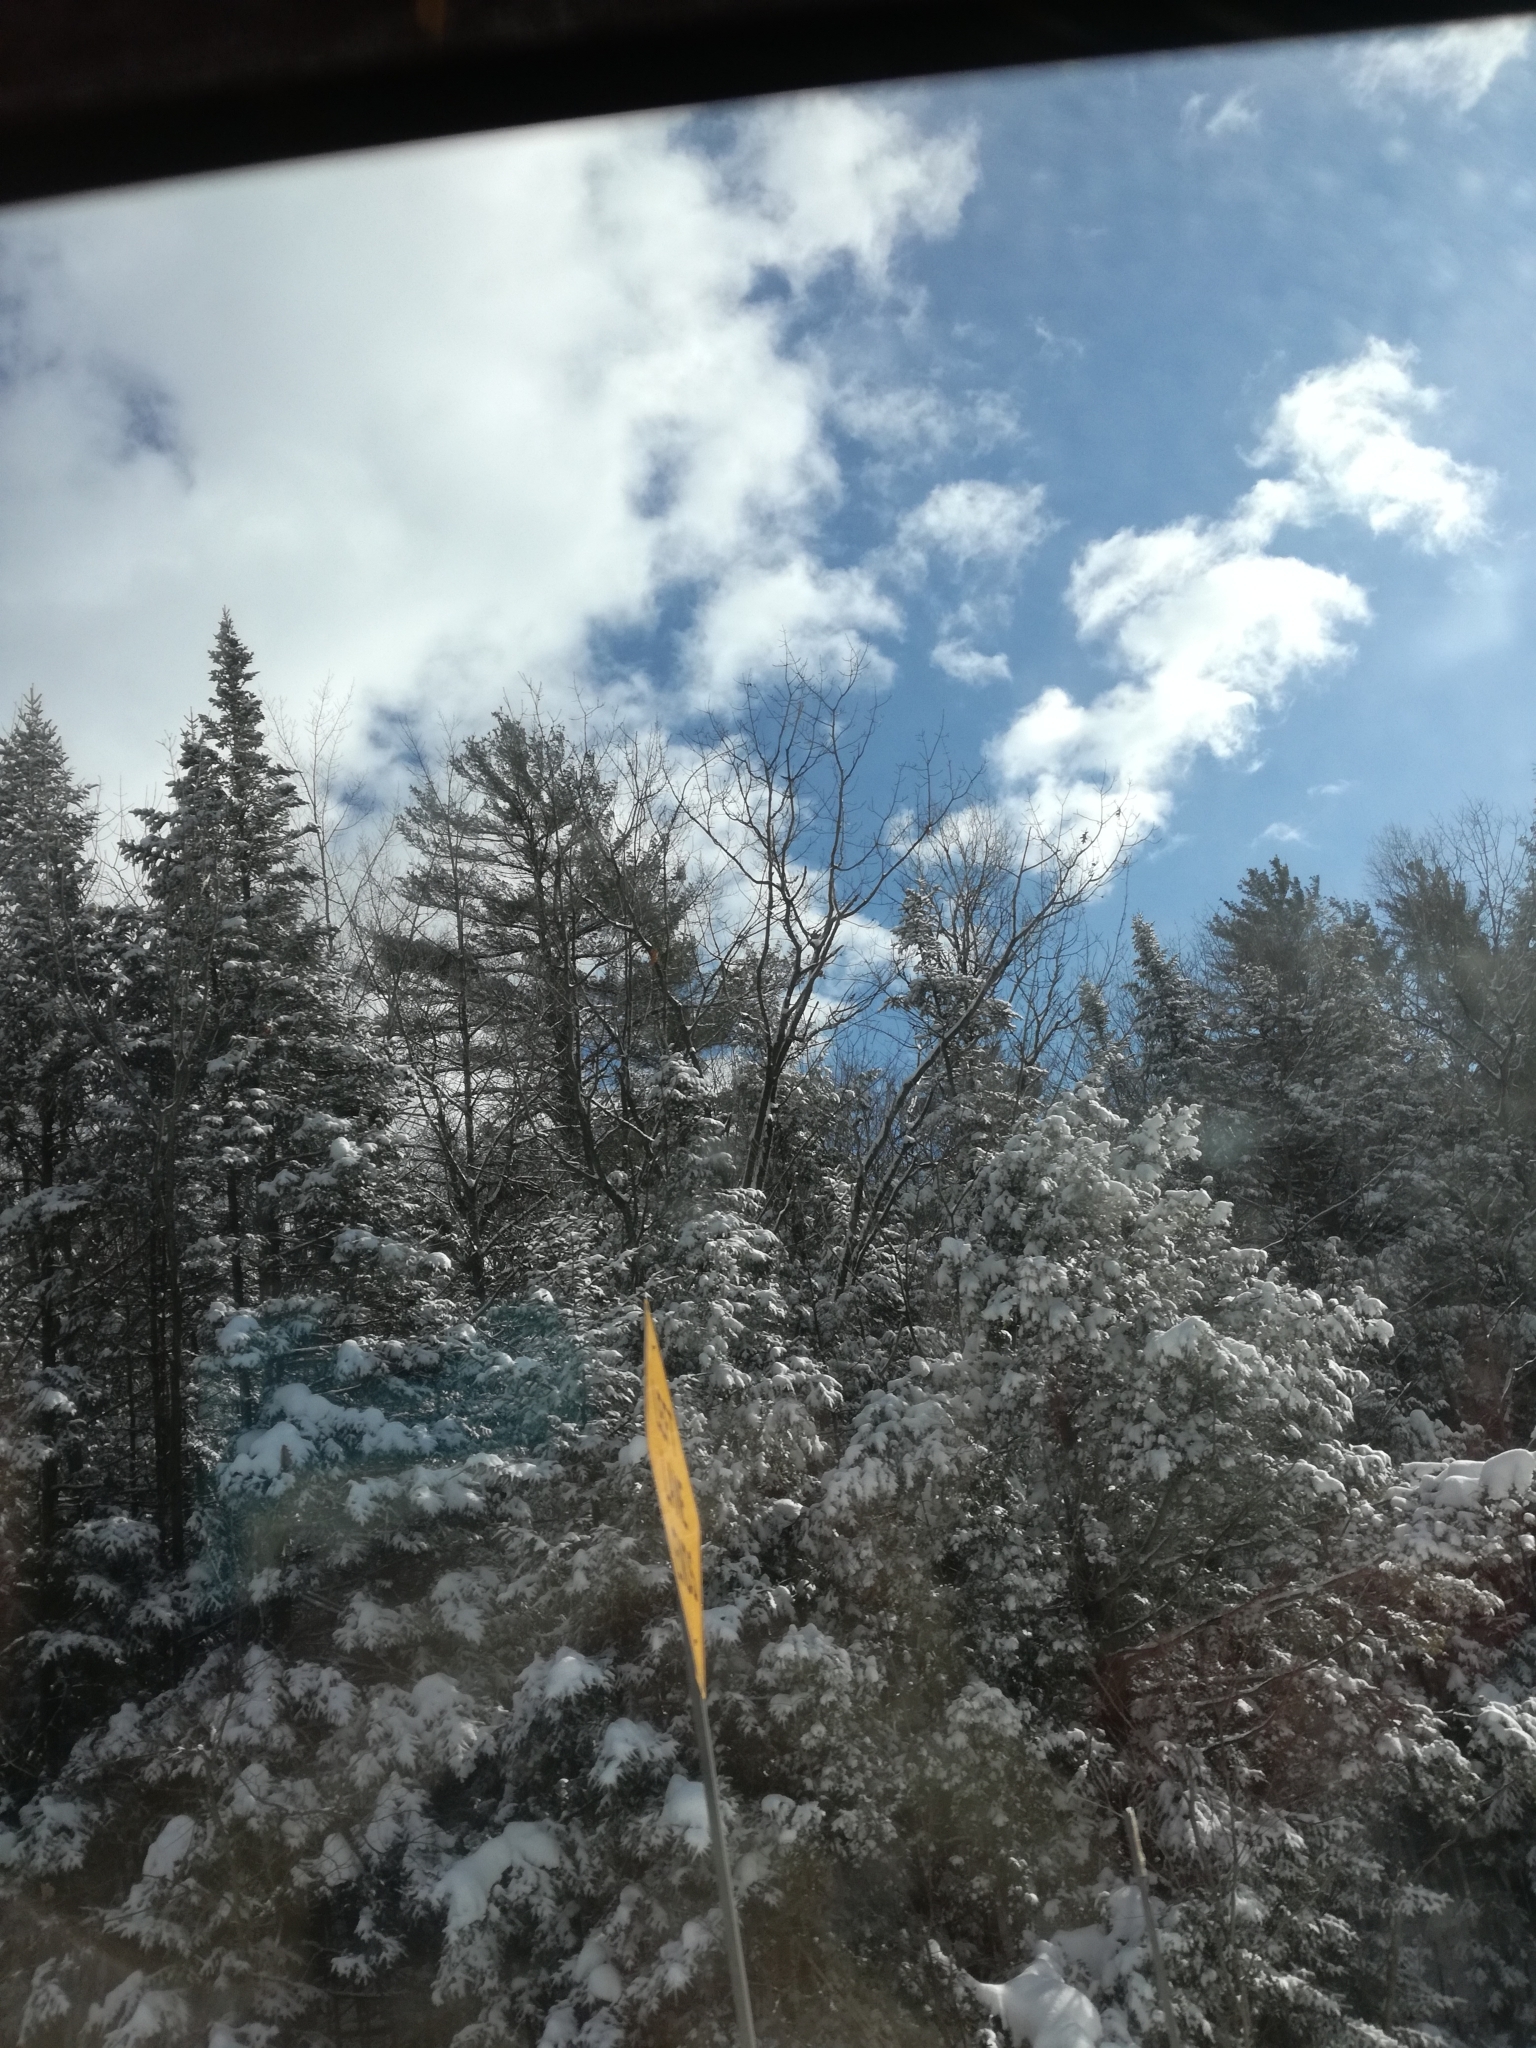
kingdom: Plantae
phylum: Tracheophyta
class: Pinopsida
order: Pinales
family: Pinaceae
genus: Pinus
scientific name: Pinus strobus
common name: Weymouth pine
